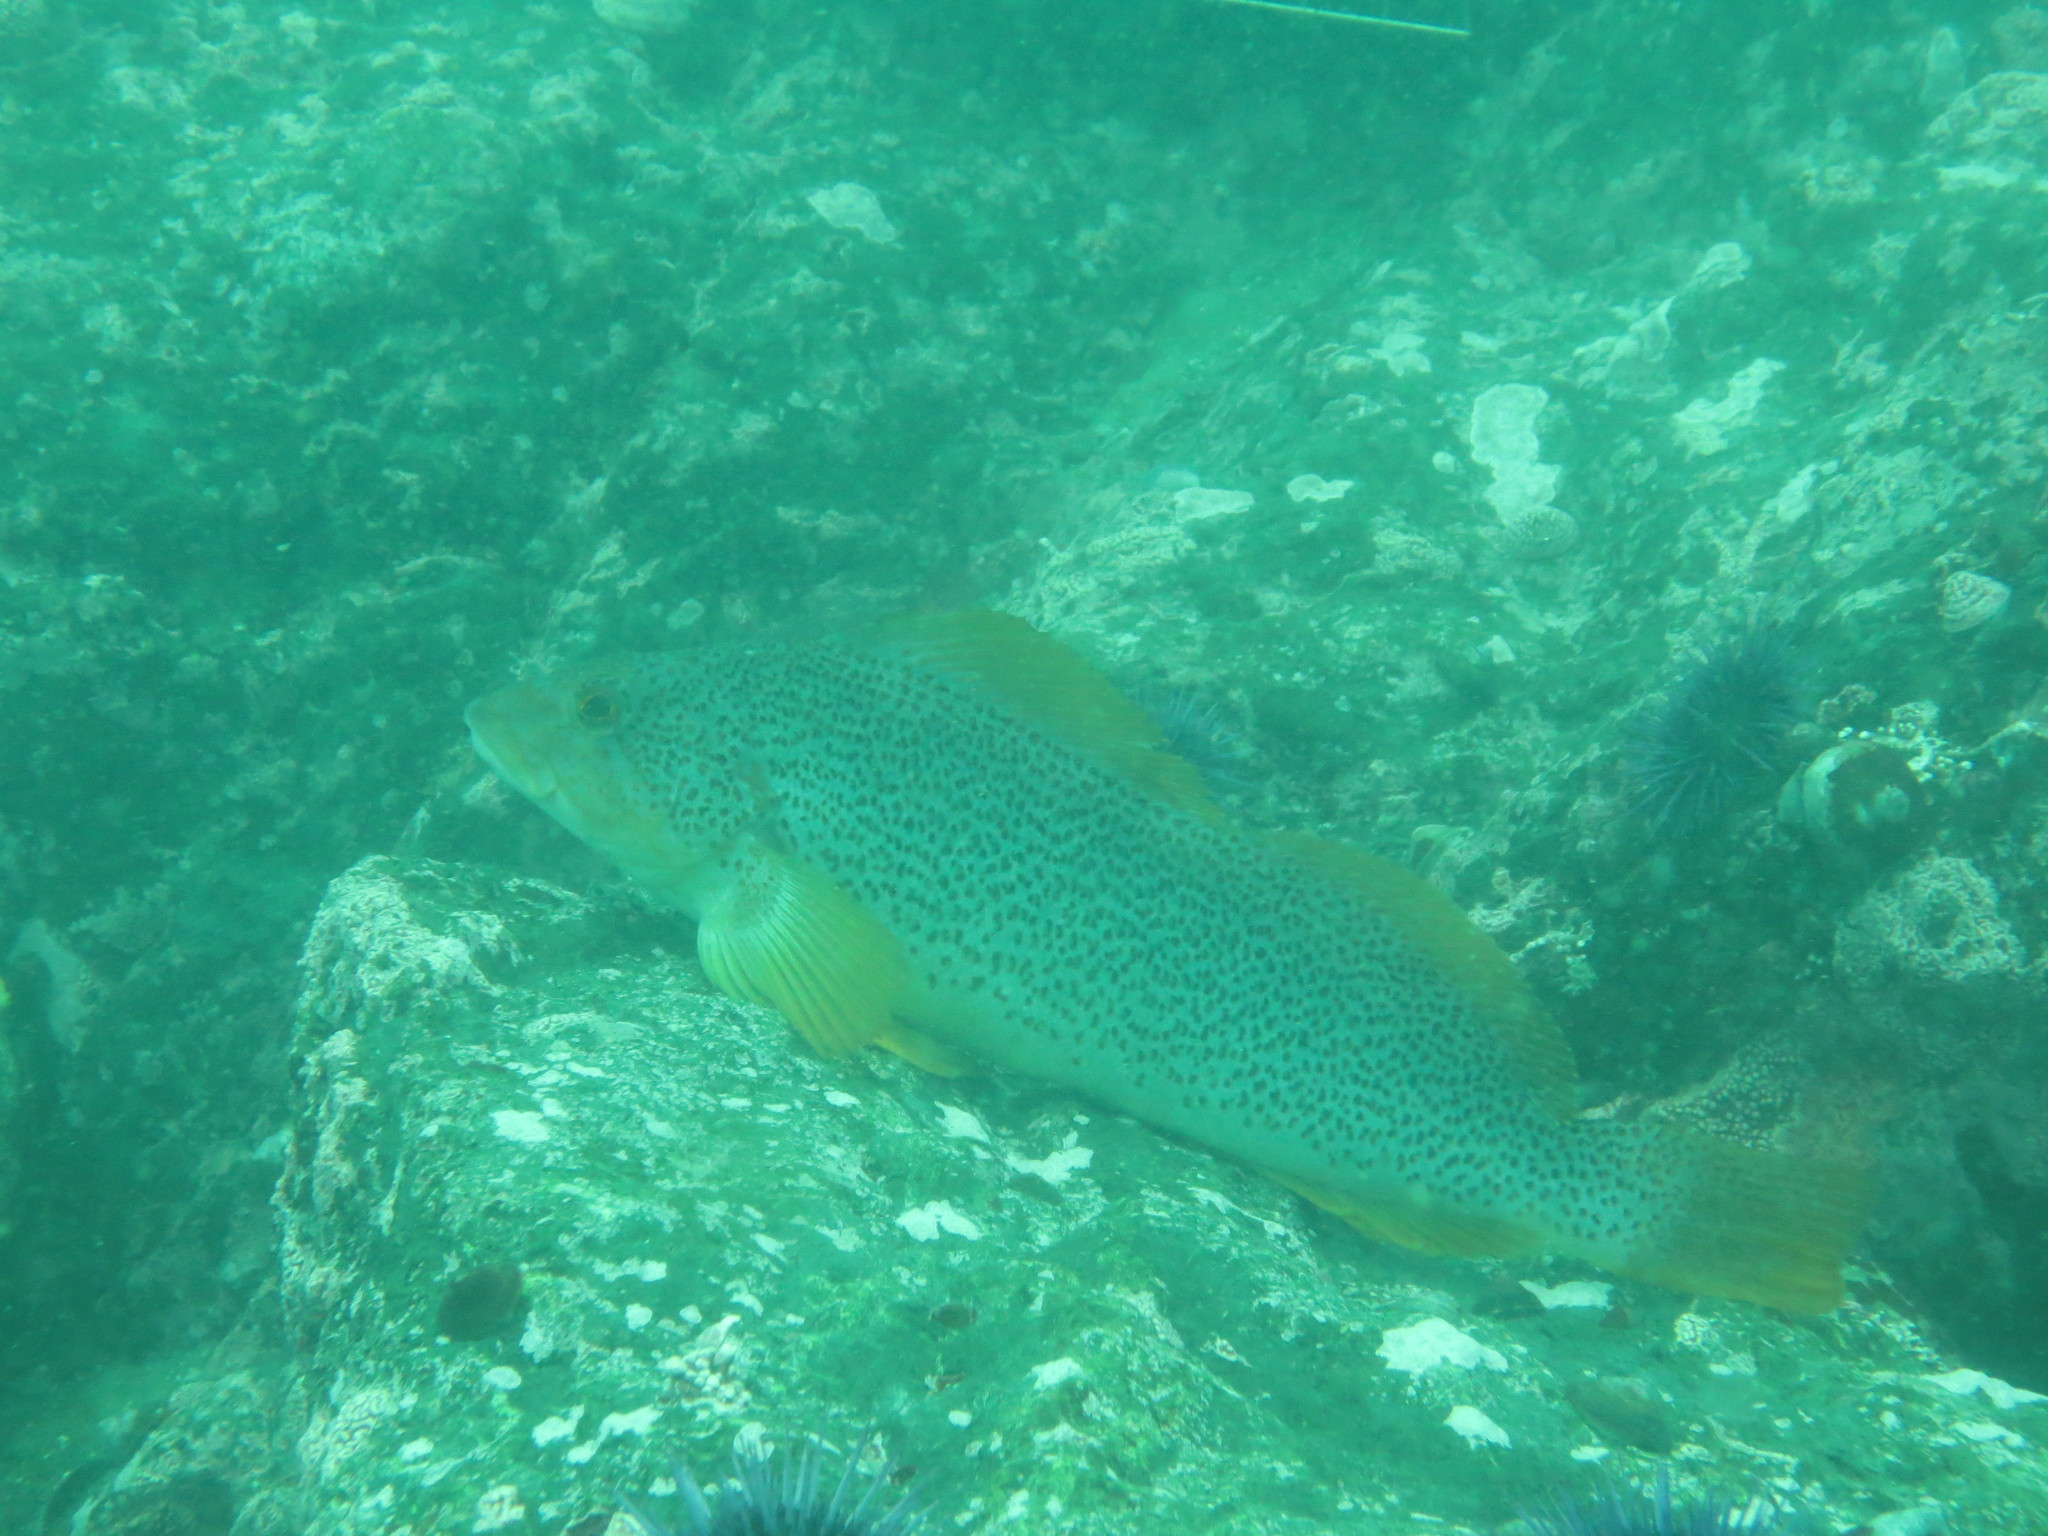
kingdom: Animalia
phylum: Chordata
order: Scorpaeniformes
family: Hexagrammidae
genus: Hexagrammos
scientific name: Hexagrammos decagrammus
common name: Kelp greenling
